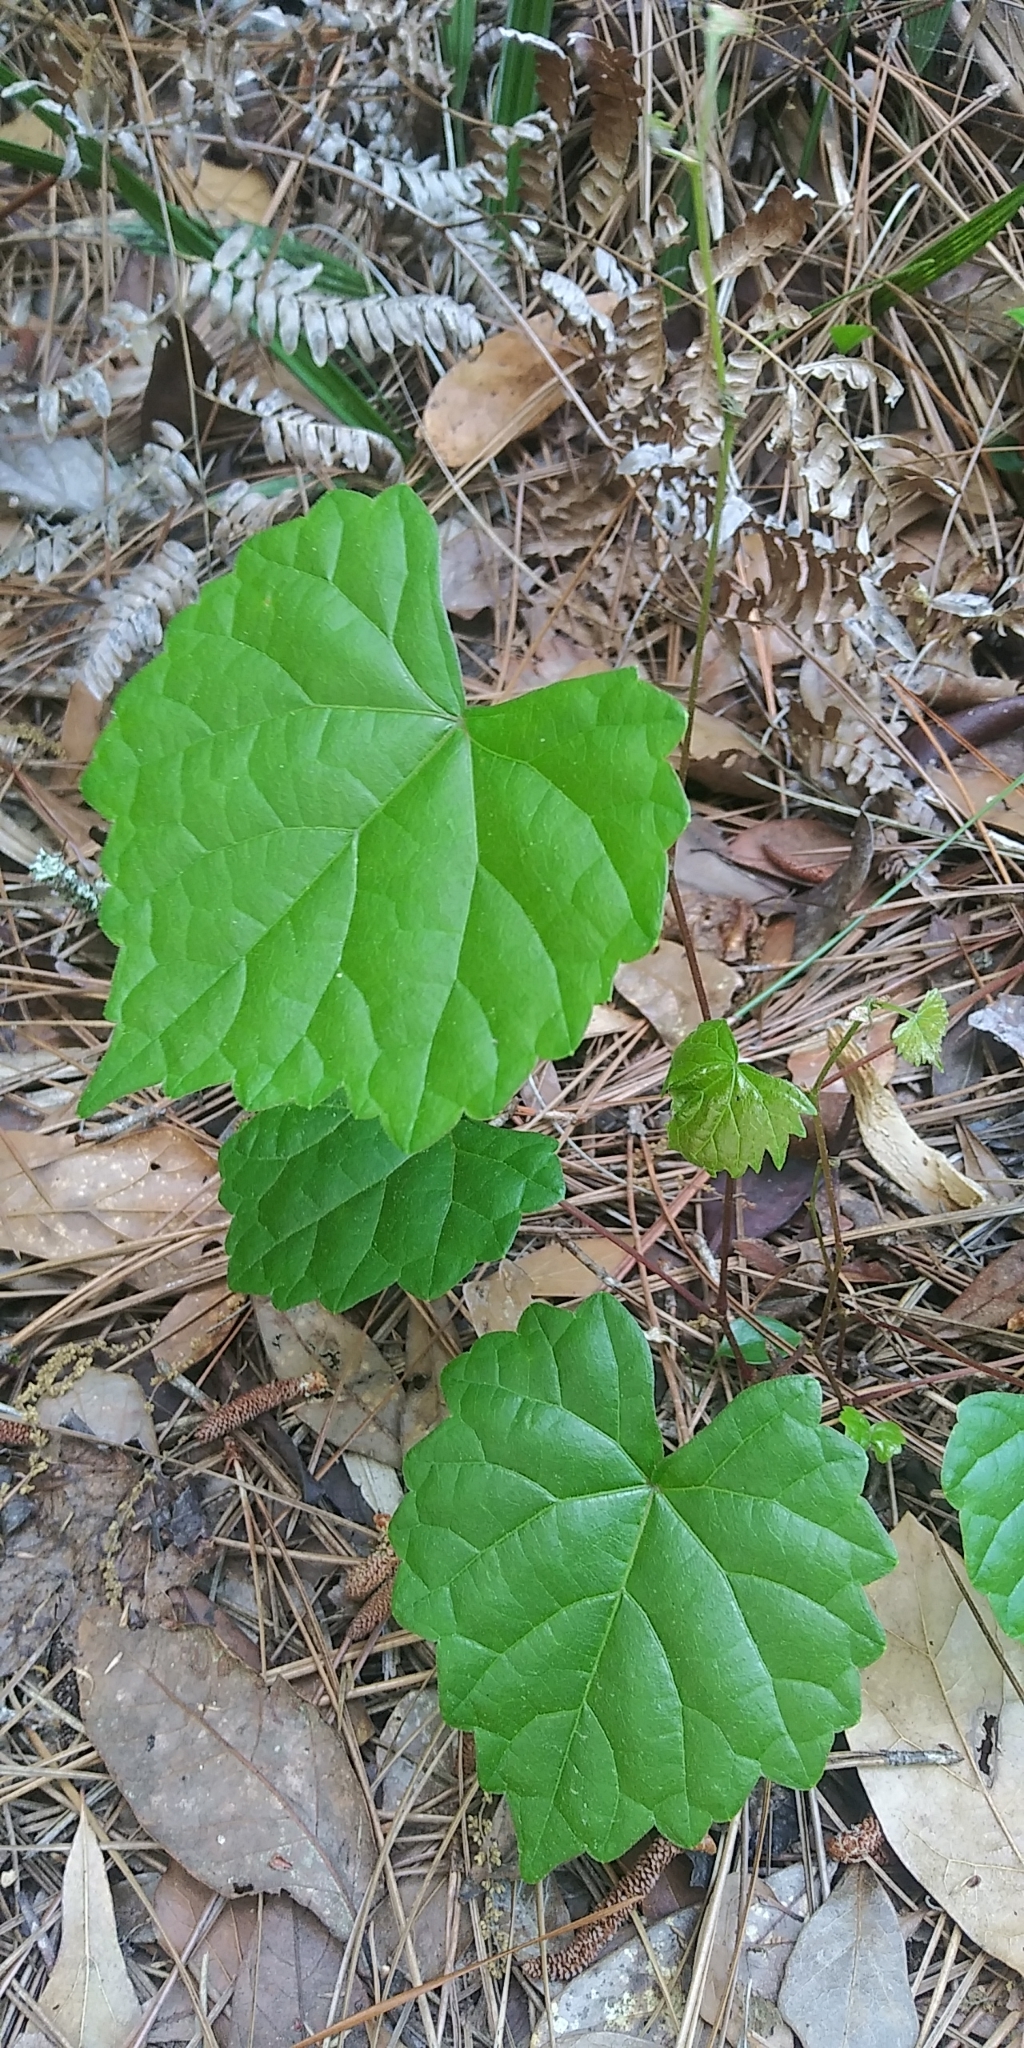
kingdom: Plantae
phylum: Tracheophyta
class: Magnoliopsida
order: Vitales
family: Vitaceae
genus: Vitis
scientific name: Vitis rotundifolia
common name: Muscadine grape
